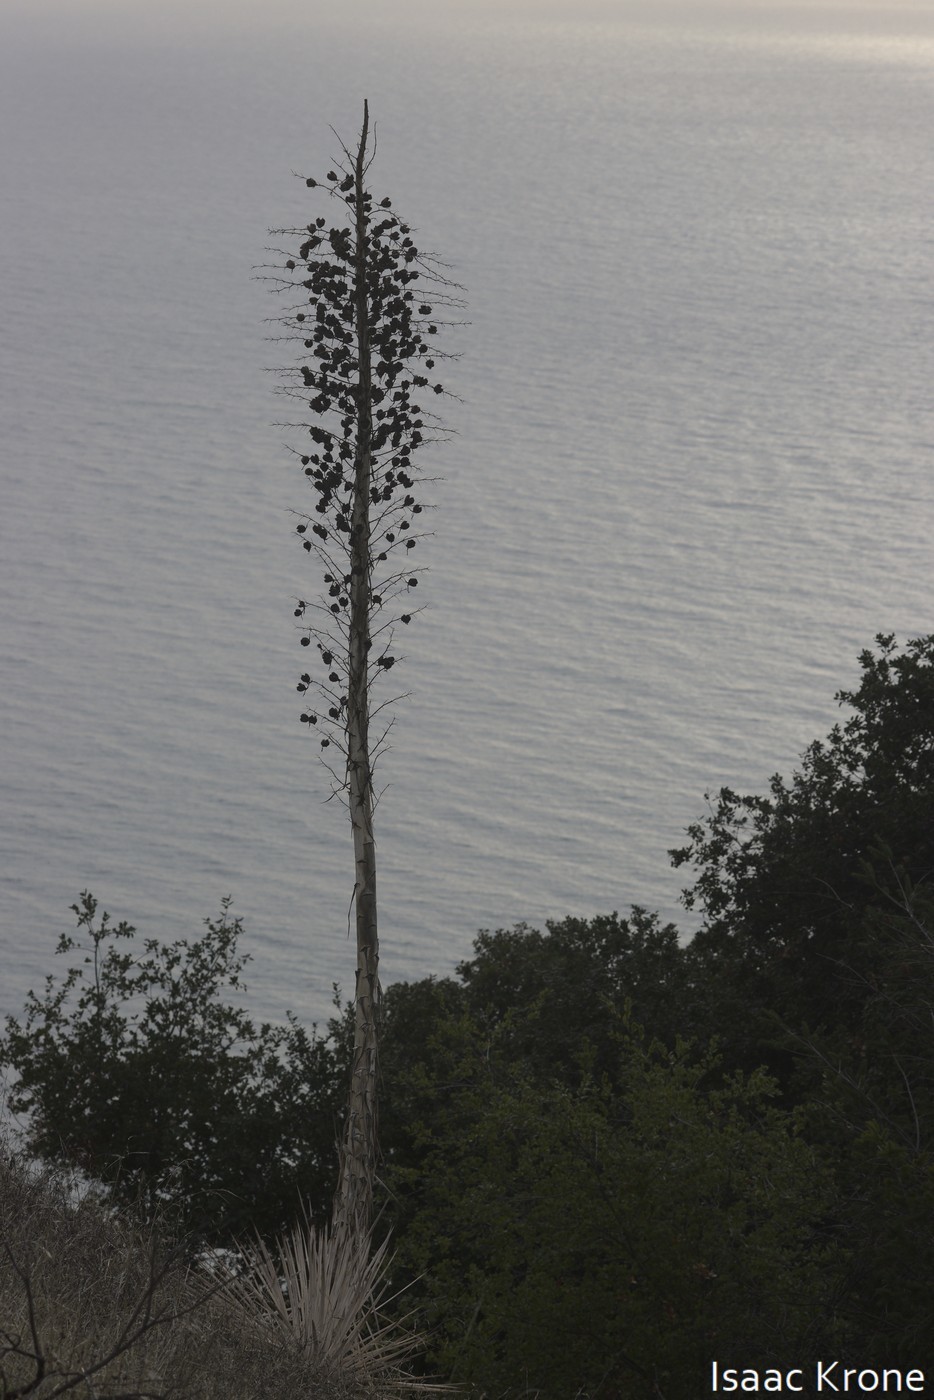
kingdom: Plantae
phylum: Tracheophyta
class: Liliopsida
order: Asparagales
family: Asparagaceae
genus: Hesperoyucca
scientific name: Hesperoyucca whipplei
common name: Our lord's-candle
